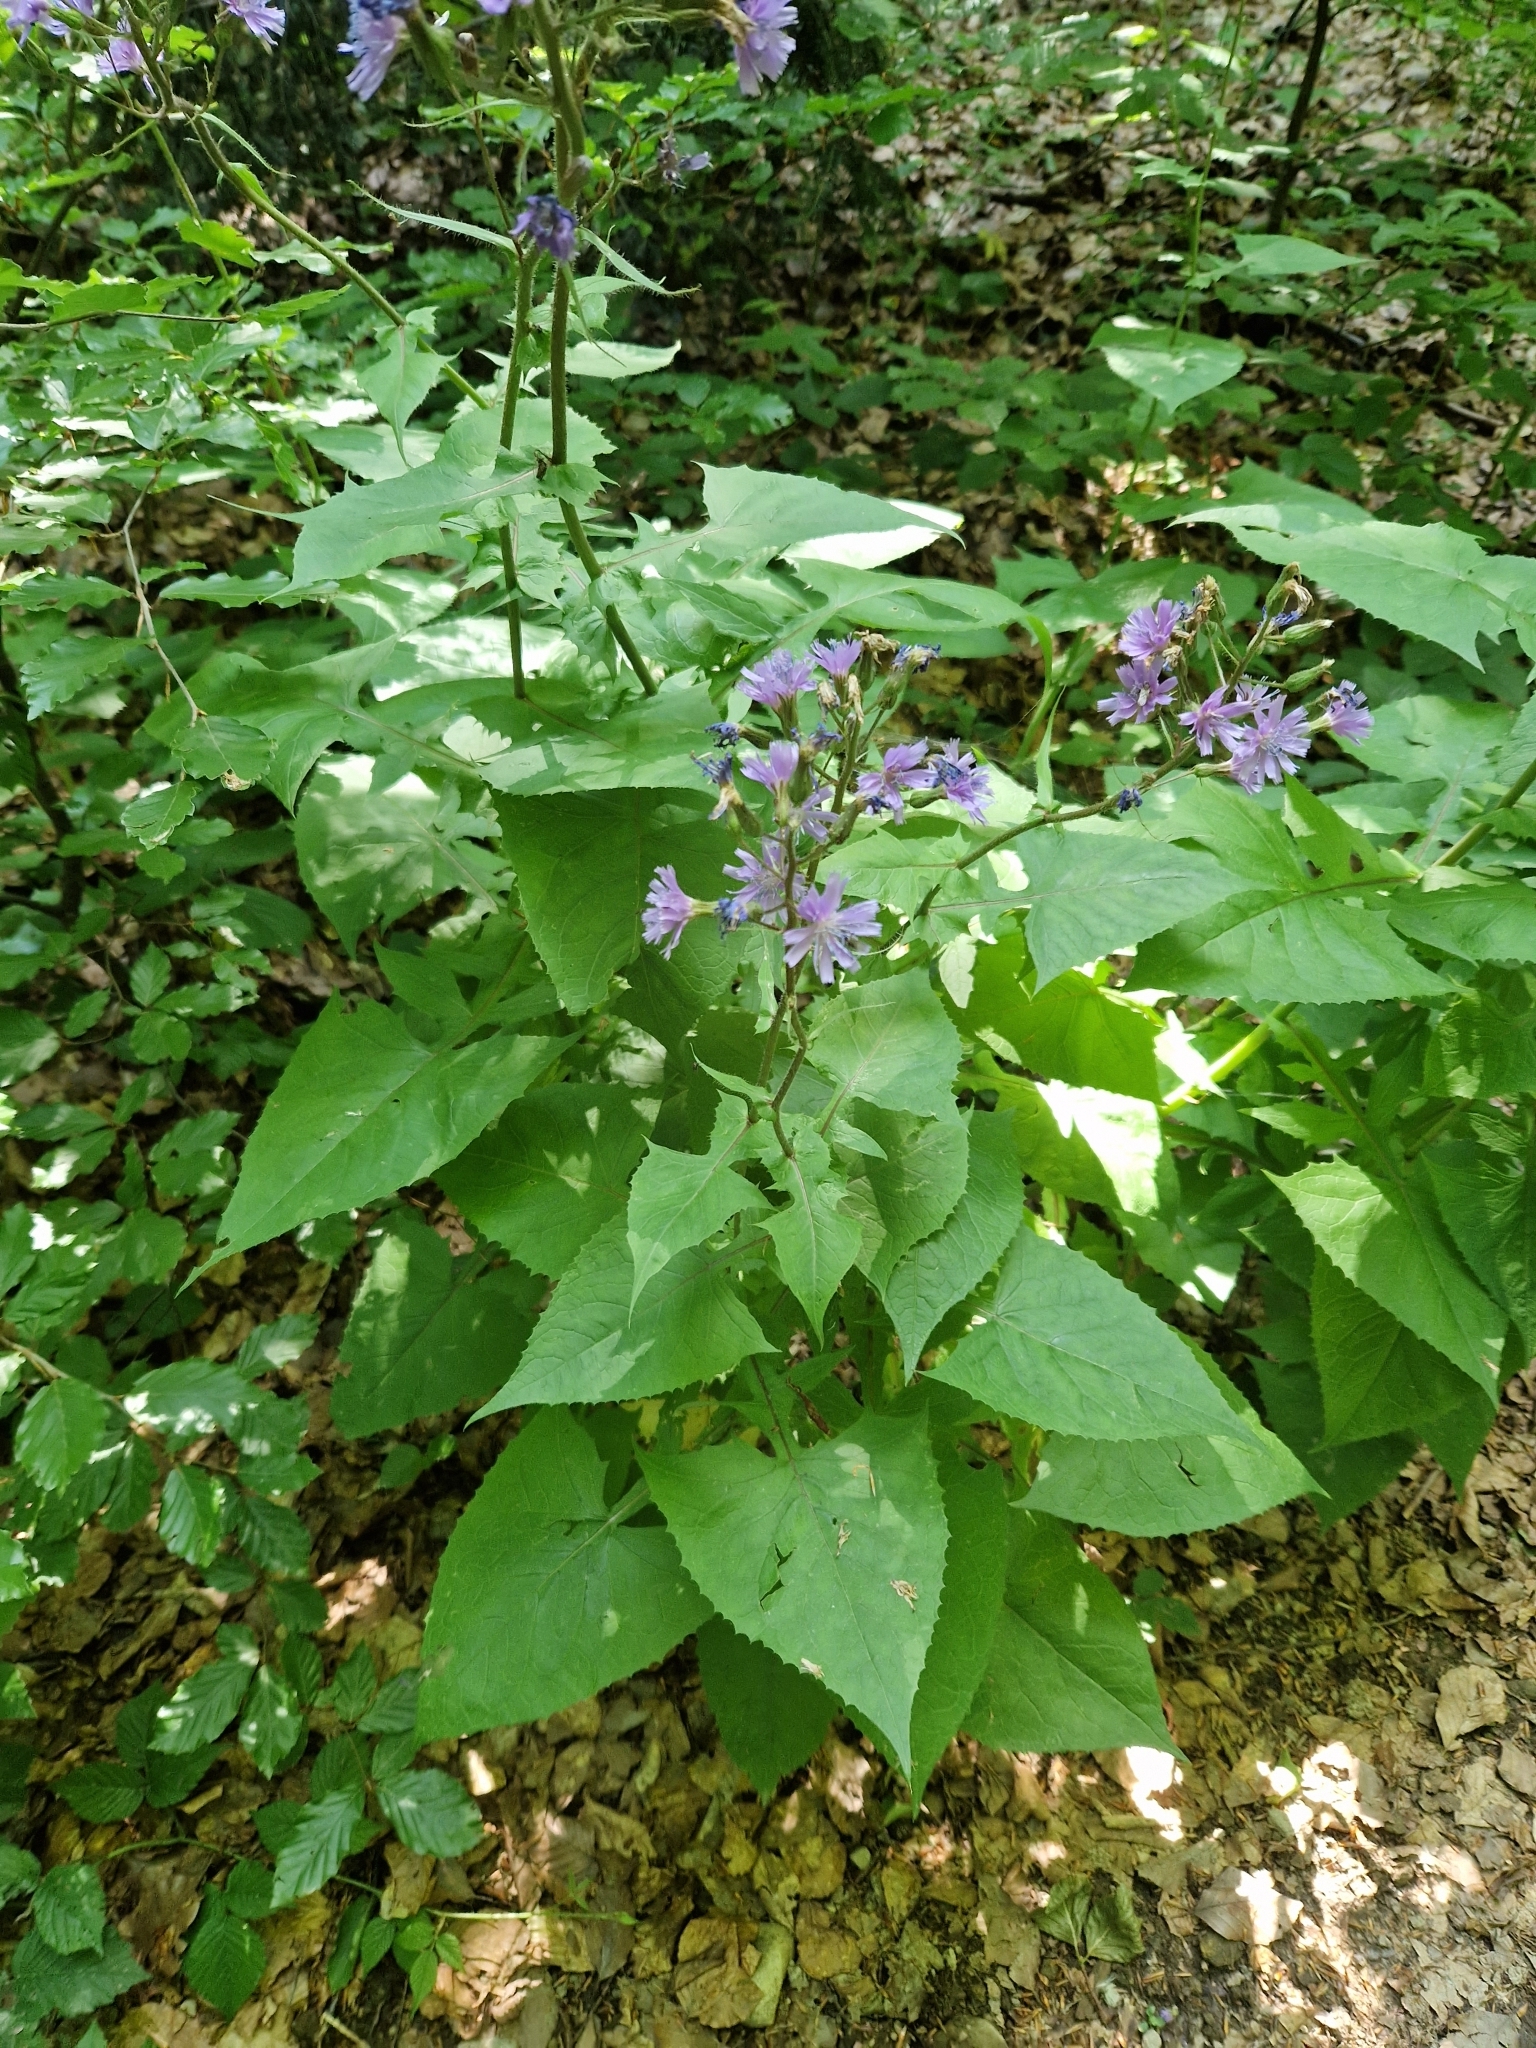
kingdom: Plantae
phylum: Tracheophyta
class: Magnoliopsida
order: Asterales
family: Asteraceae
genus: Cicerbita
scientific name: Cicerbita alpina
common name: Alpine blue-sow-thistle
